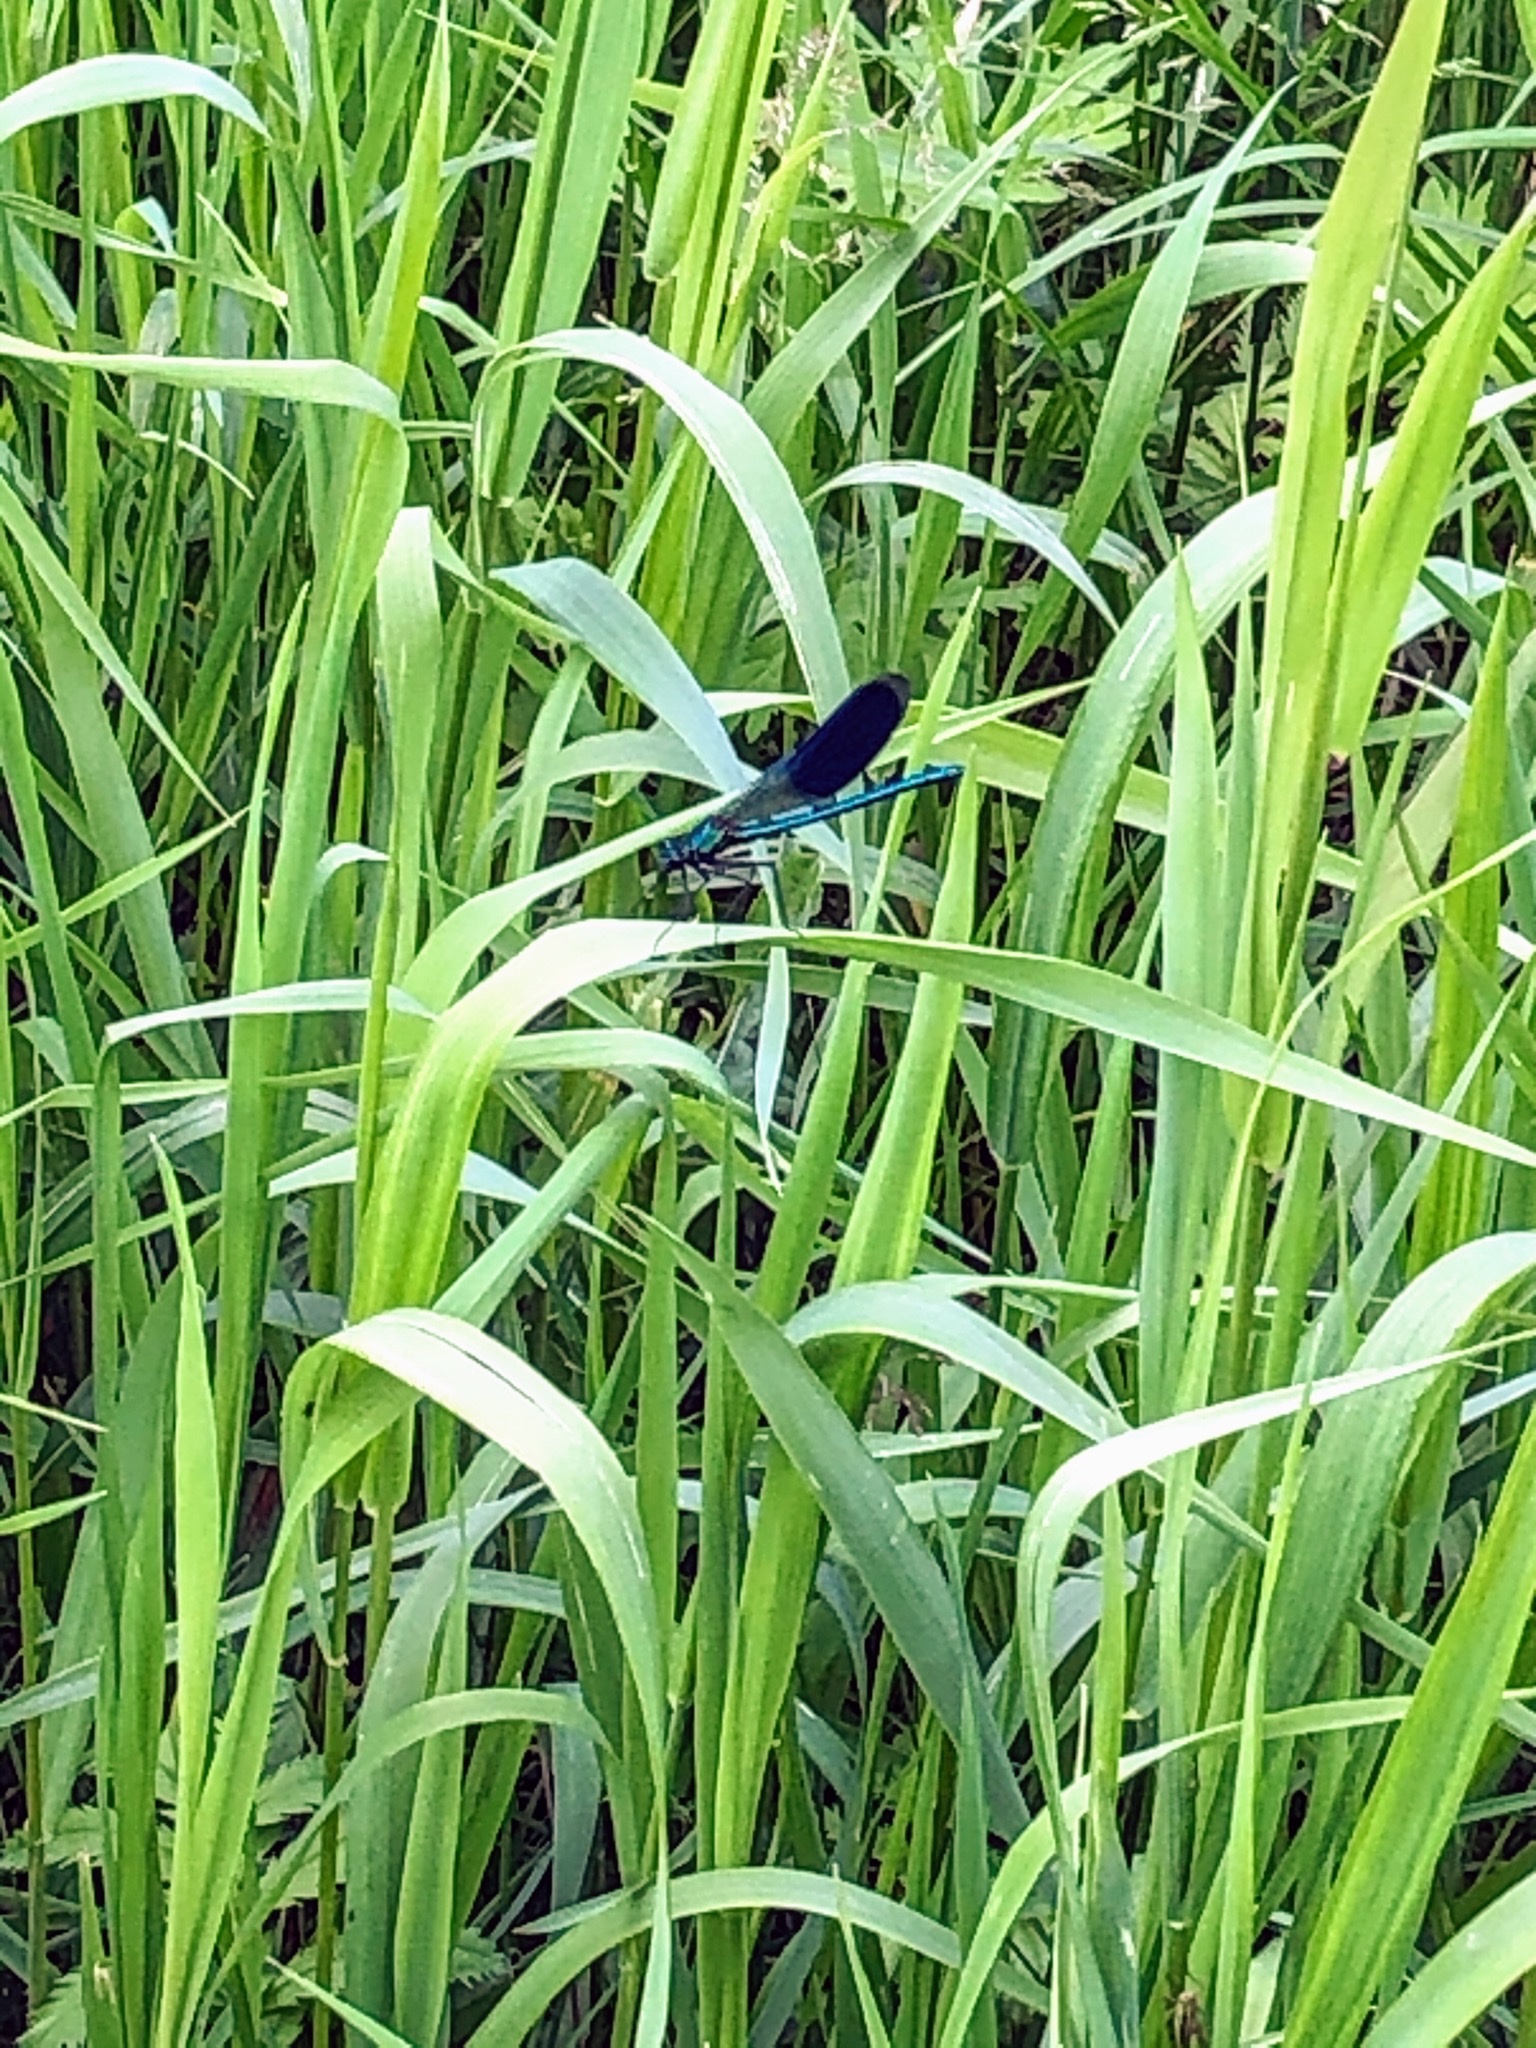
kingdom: Animalia
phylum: Arthropoda
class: Insecta
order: Odonata
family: Calopterygidae
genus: Calopteryx
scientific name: Calopteryx splendens
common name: Banded demoiselle
